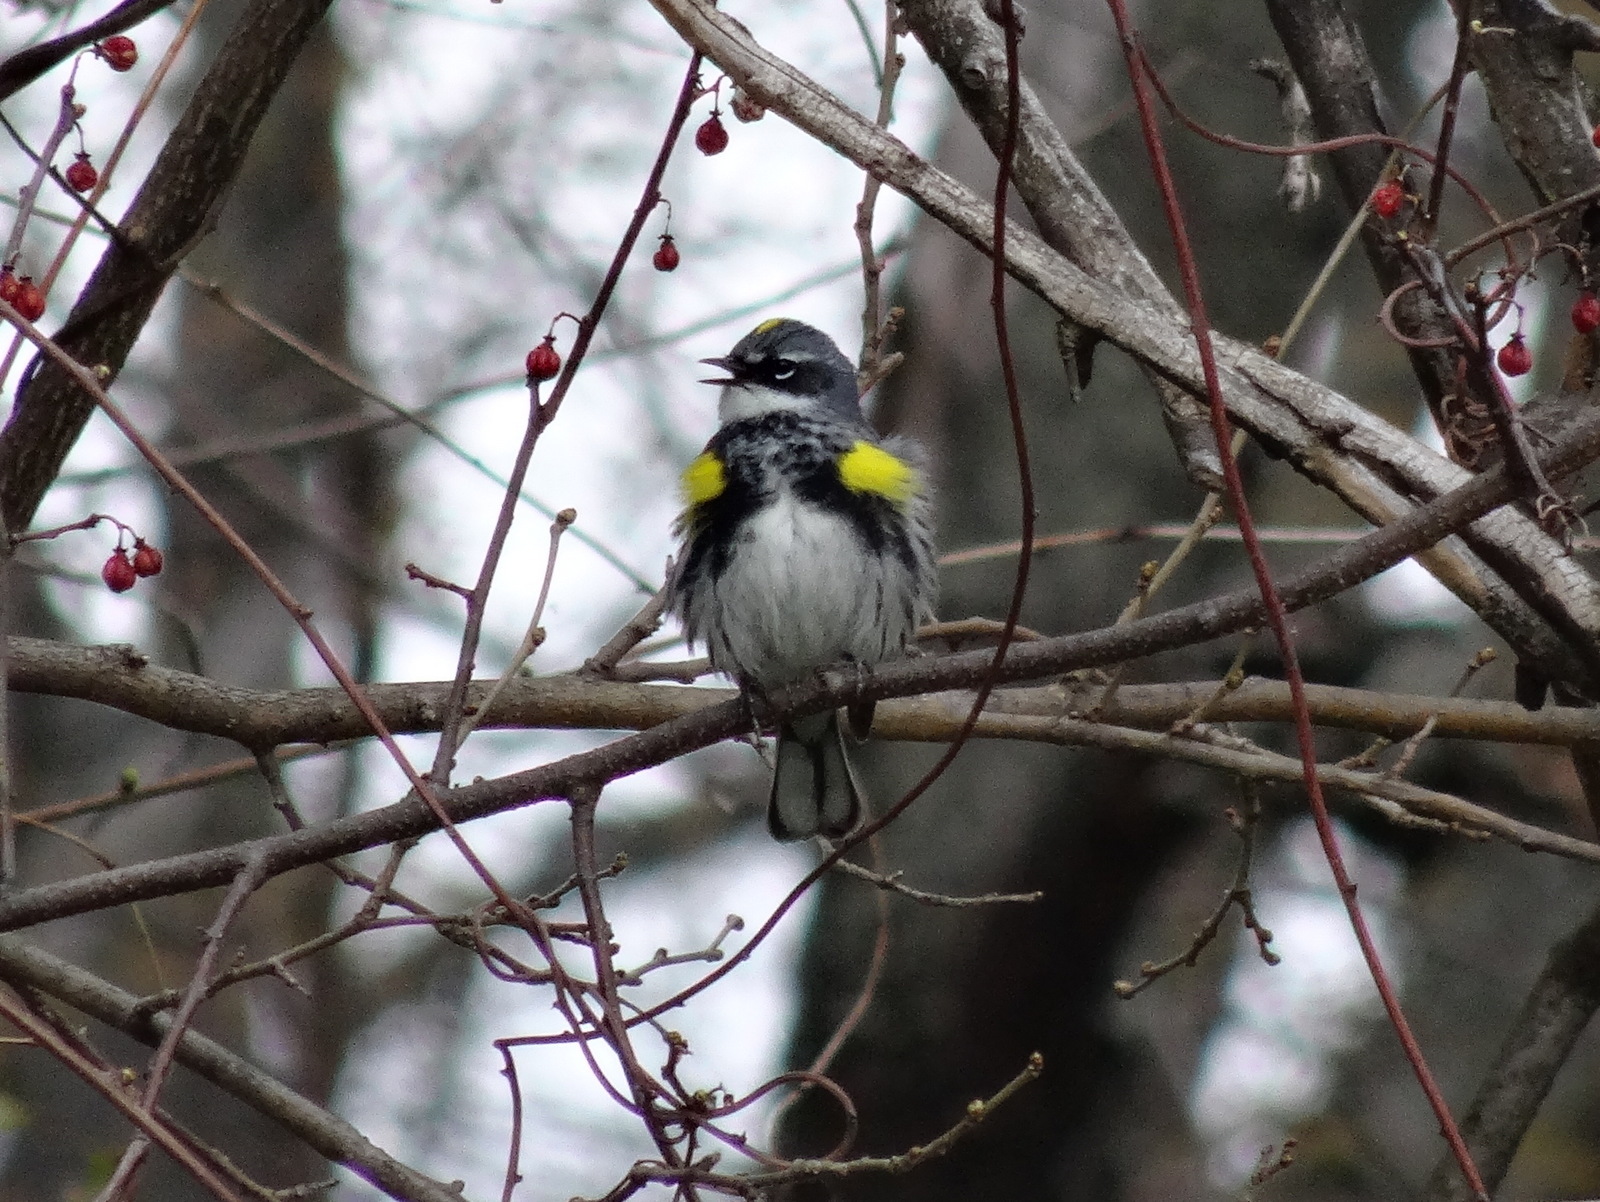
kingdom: Animalia
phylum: Chordata
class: Aves
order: Passeriformes
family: Parulidae
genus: Setophaga
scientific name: Setophaga coronata
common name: Myrtle warbler
